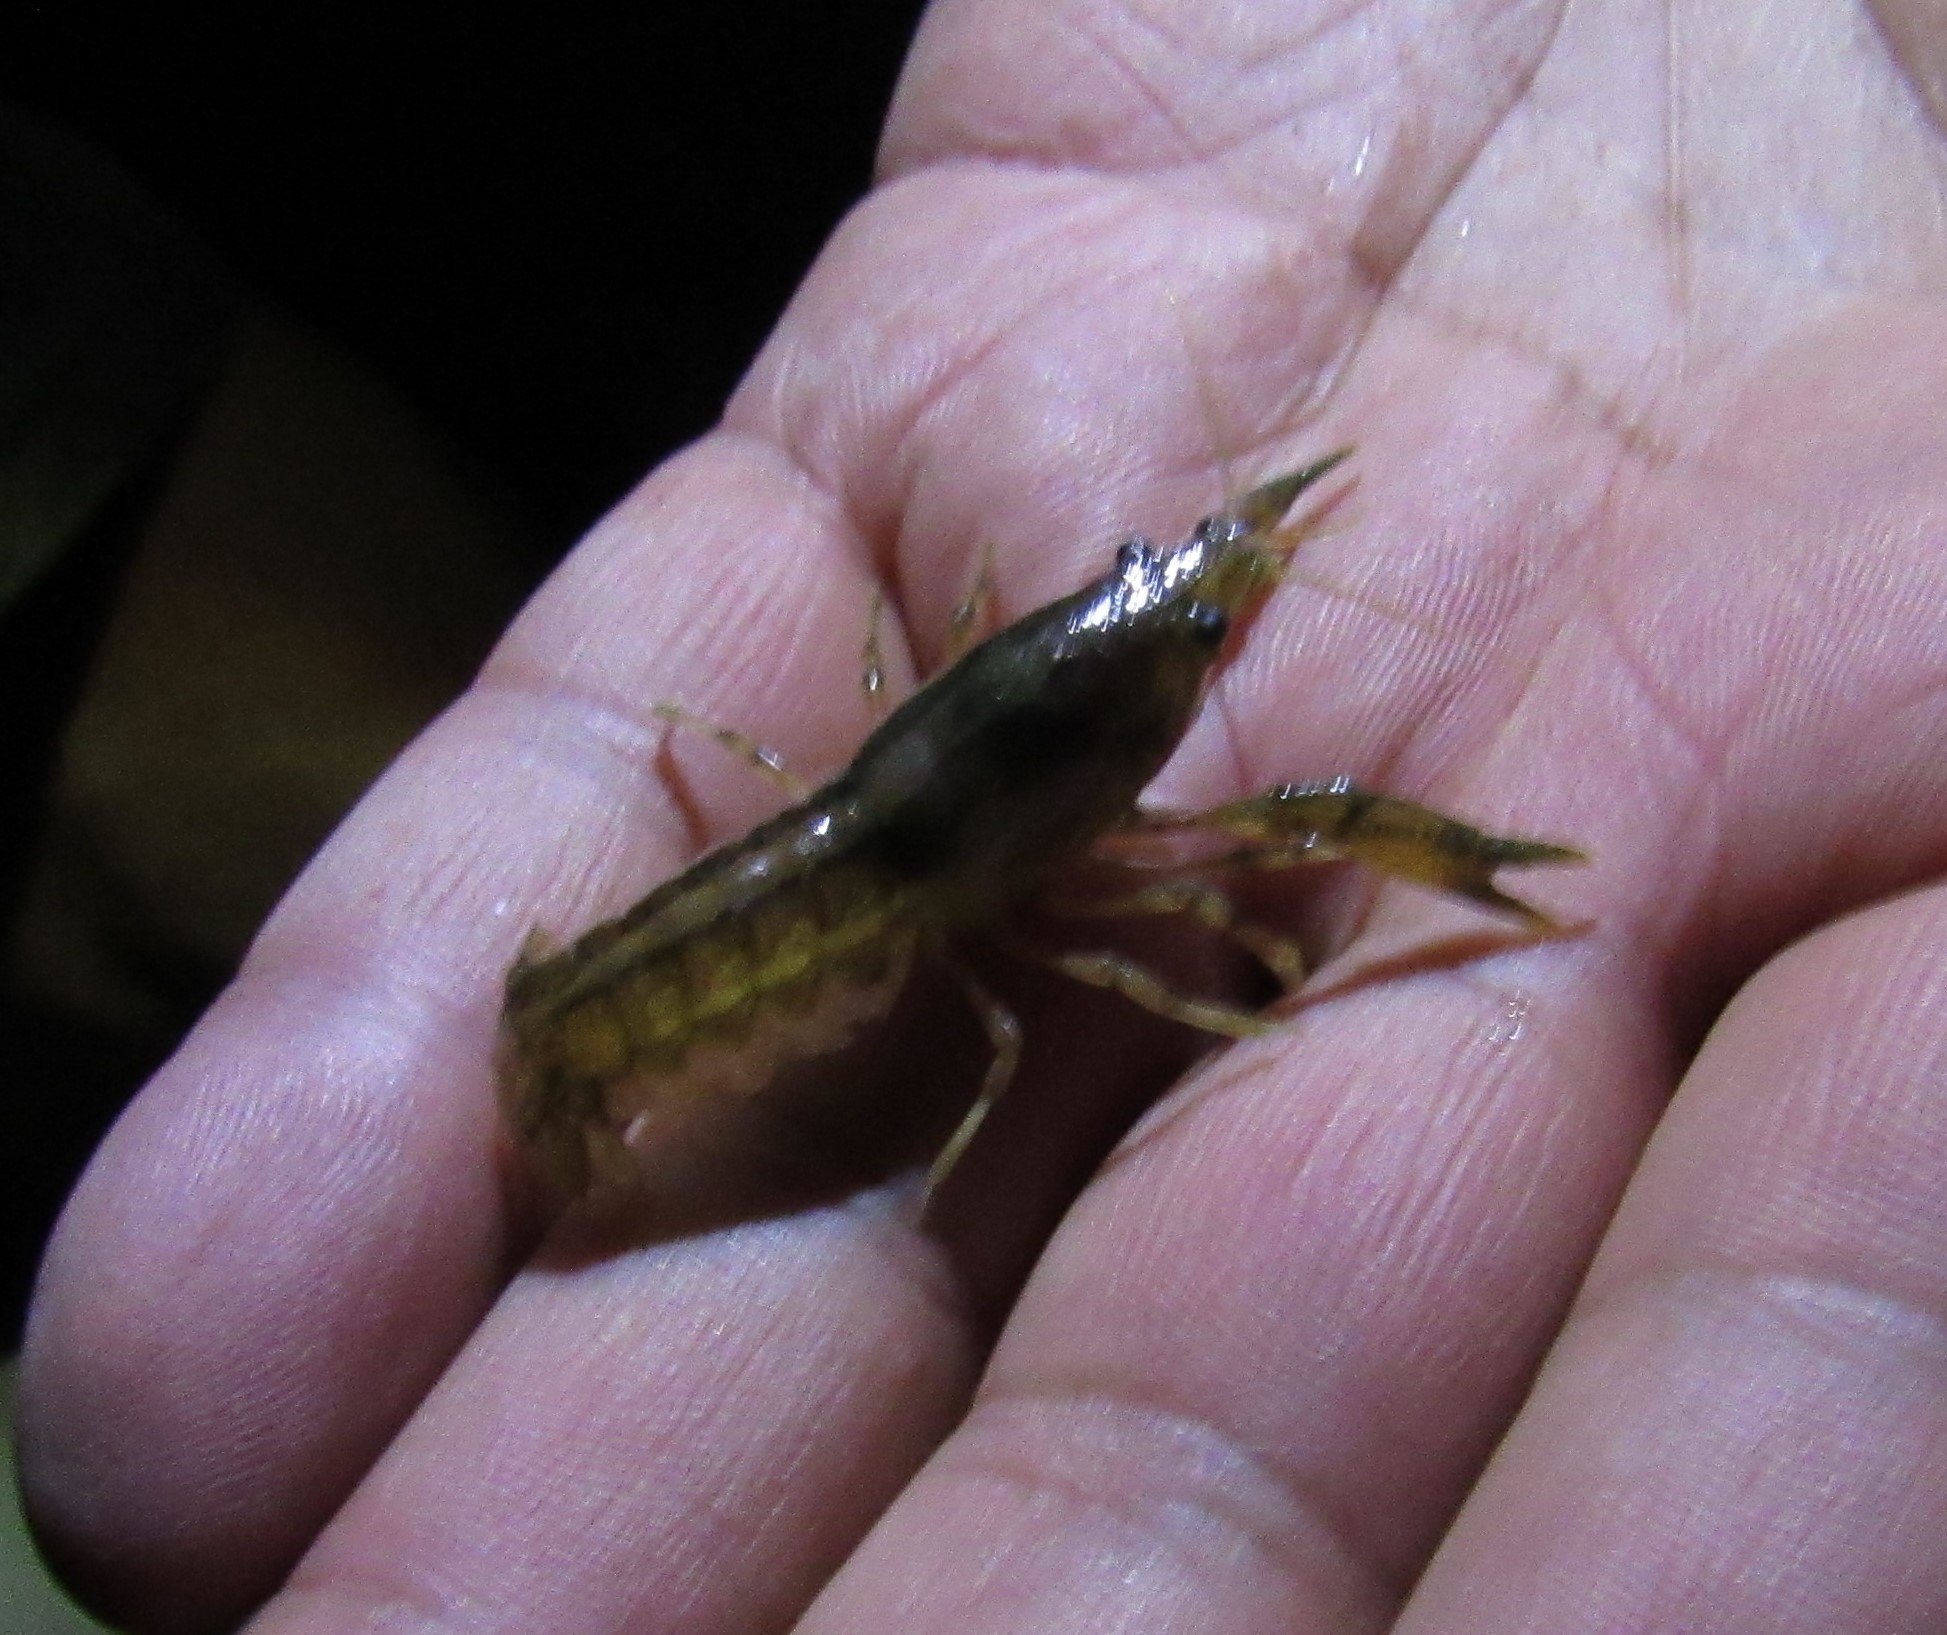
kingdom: Animalia
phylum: Arthropoda
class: Malacostraca
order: Decapoda
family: Cambaridae
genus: Cambarellus
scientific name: Cambarellus montezumae
